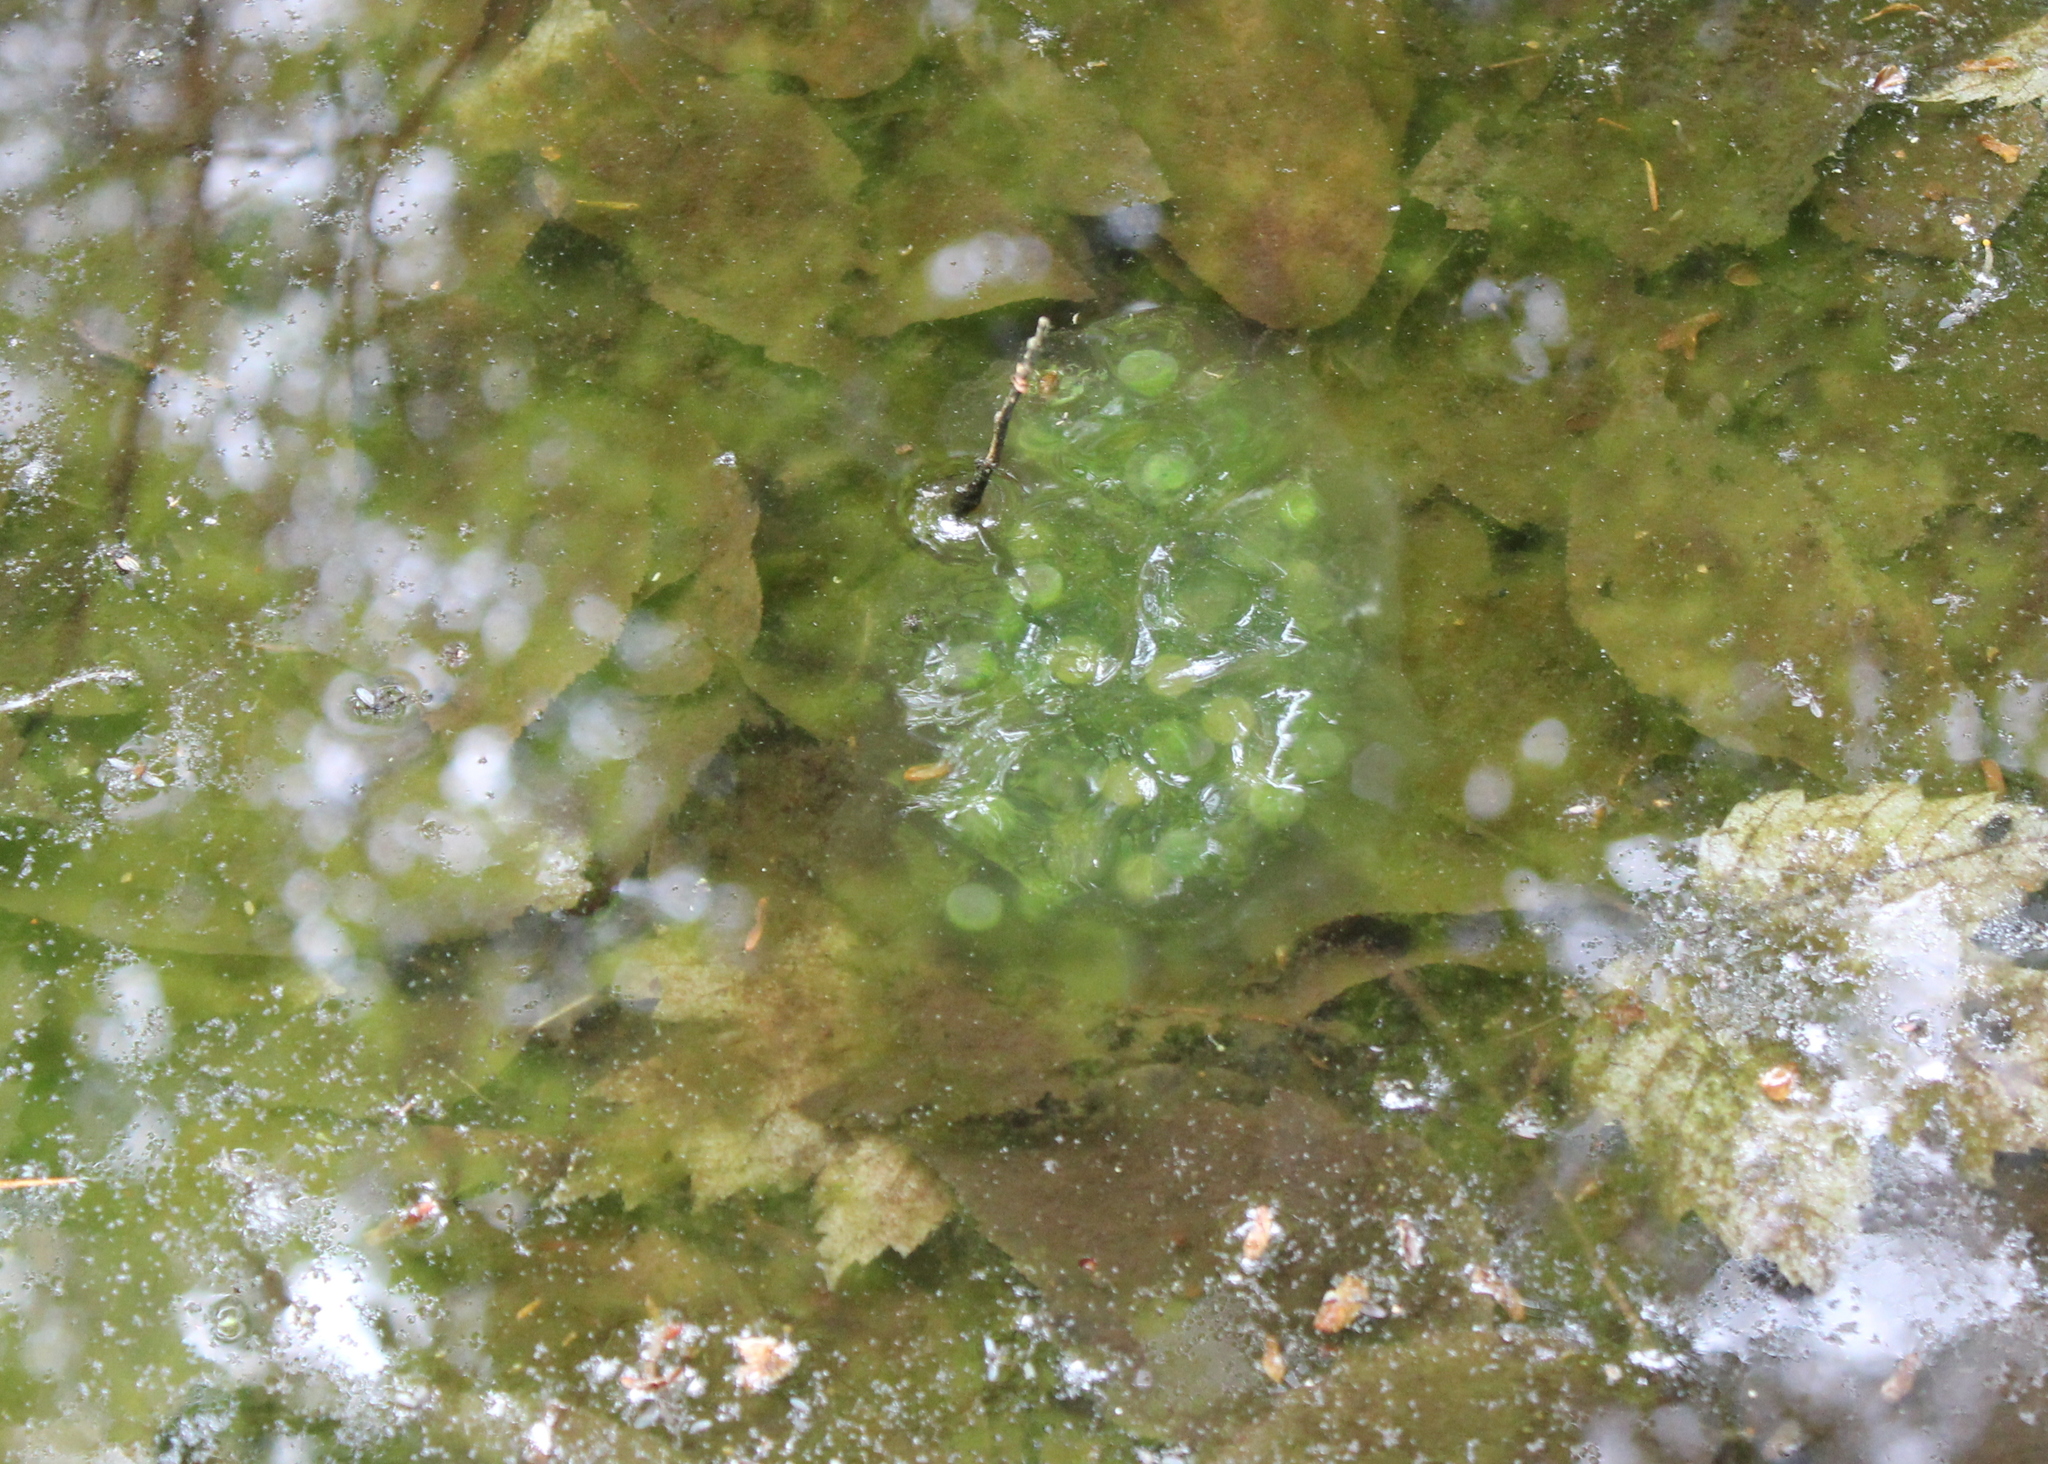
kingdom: Animalia
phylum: Chordata
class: Amphibia
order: Caudata
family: Ambystomatidae
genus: Ambystoma
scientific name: Ambystoma maculatum
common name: Spotted salamander
